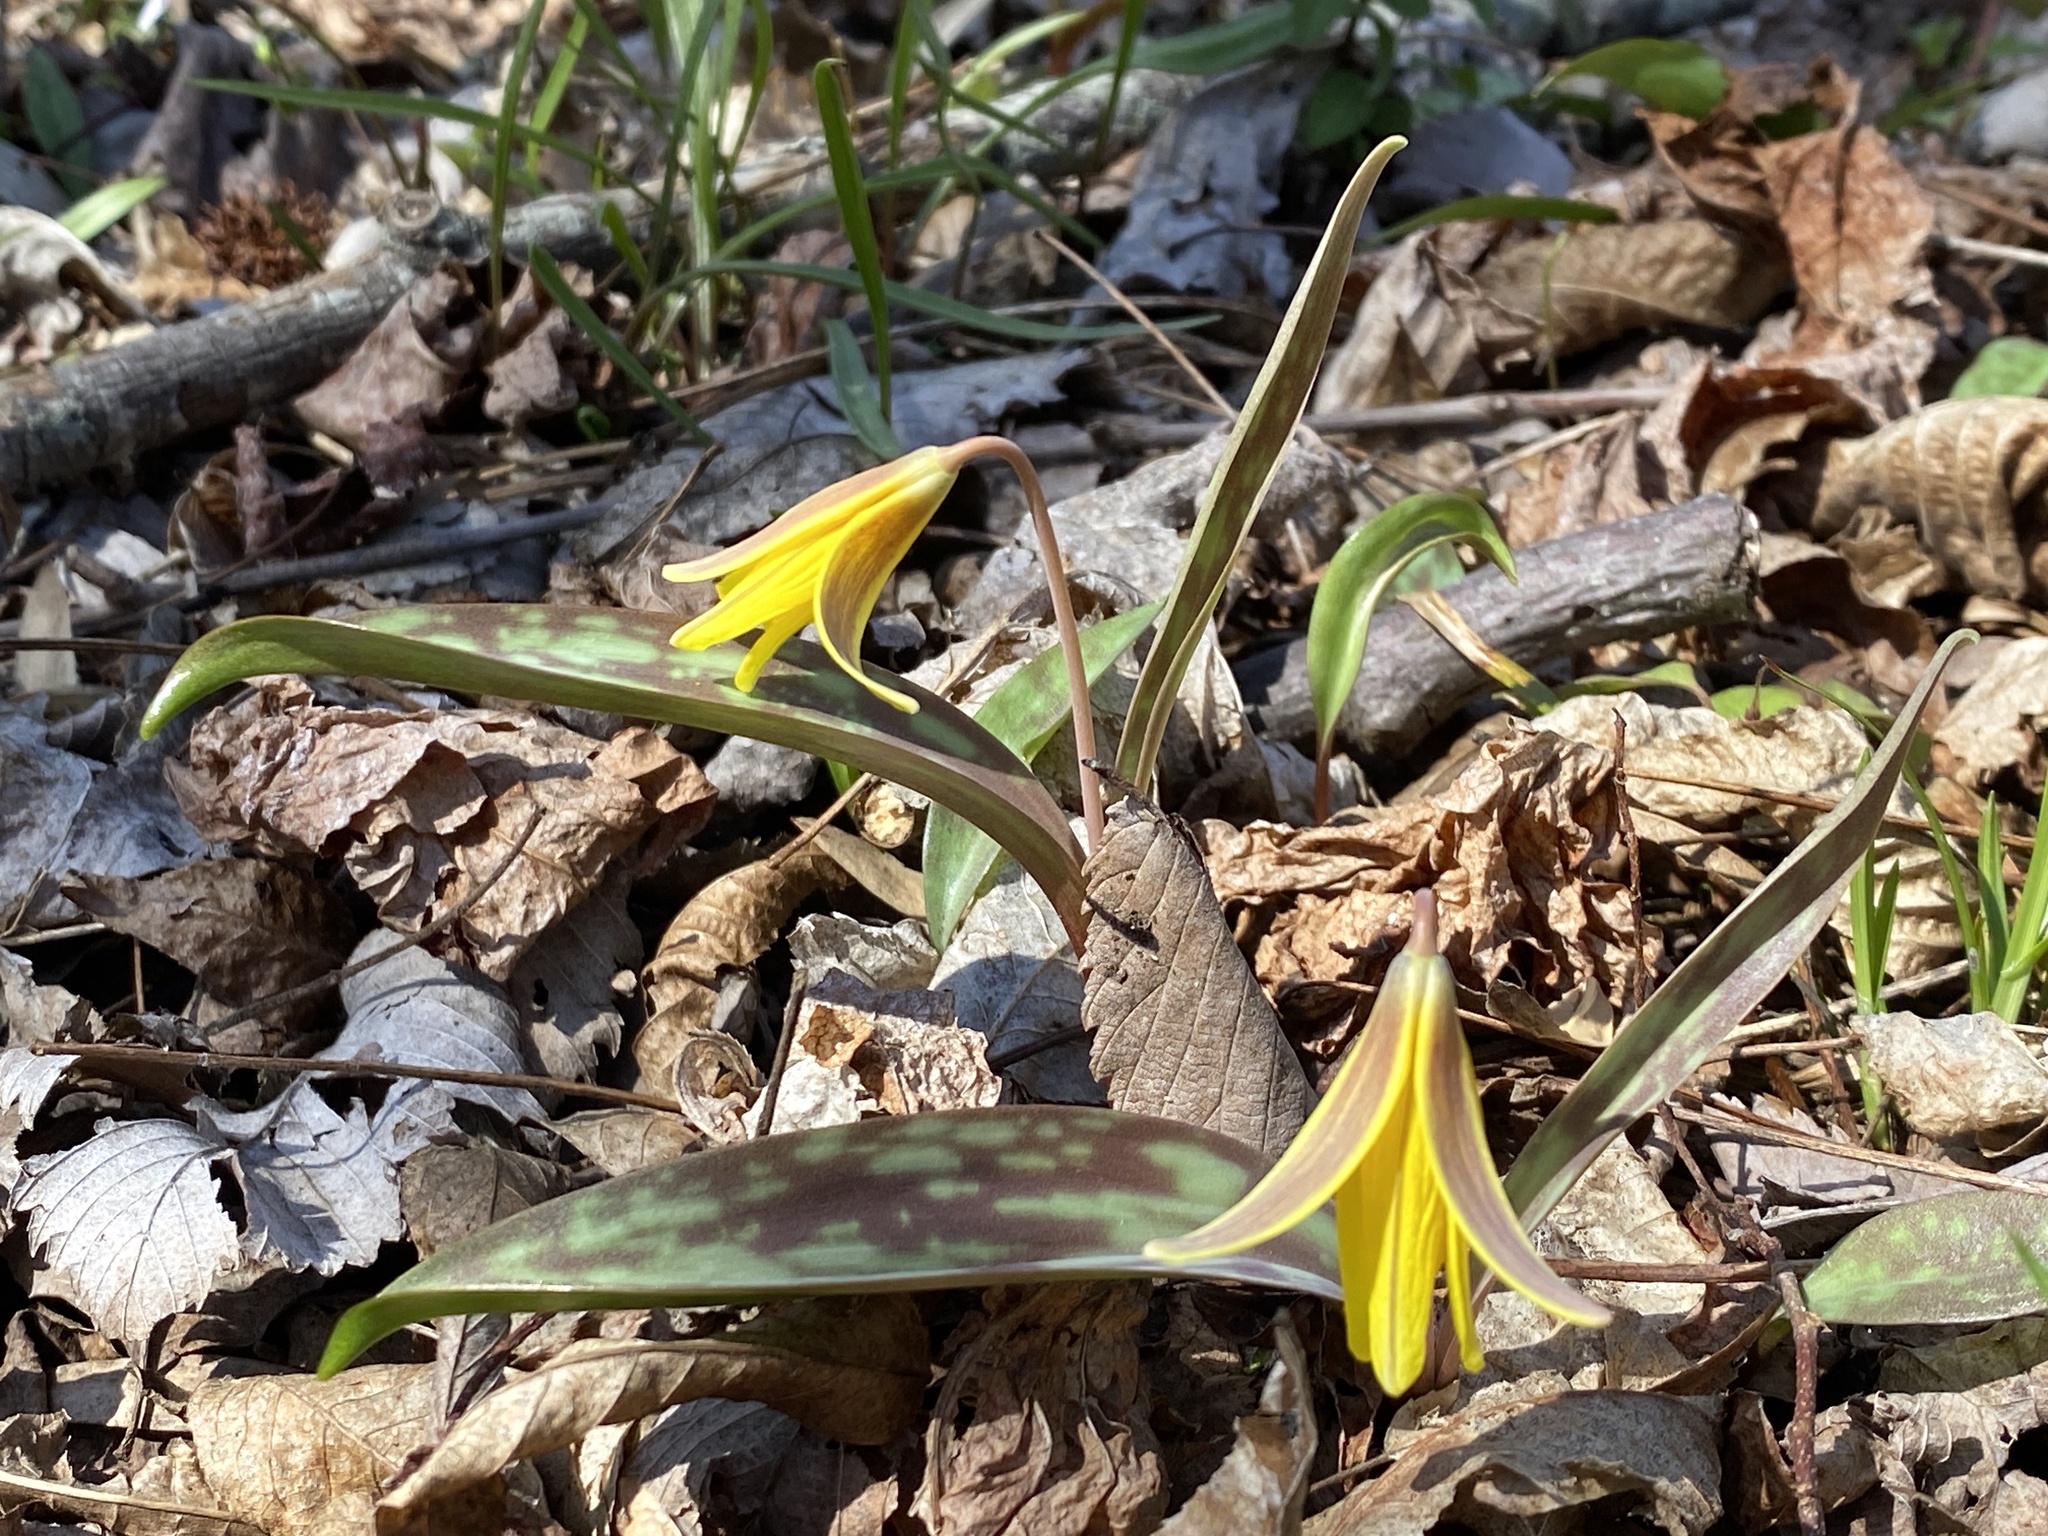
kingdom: Plantae
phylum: Tracheophyta
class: Liliopsida
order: Liliales
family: Liliaceae
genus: Erythronium
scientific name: Erythronium americanum
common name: Yellow adder's-tongue
